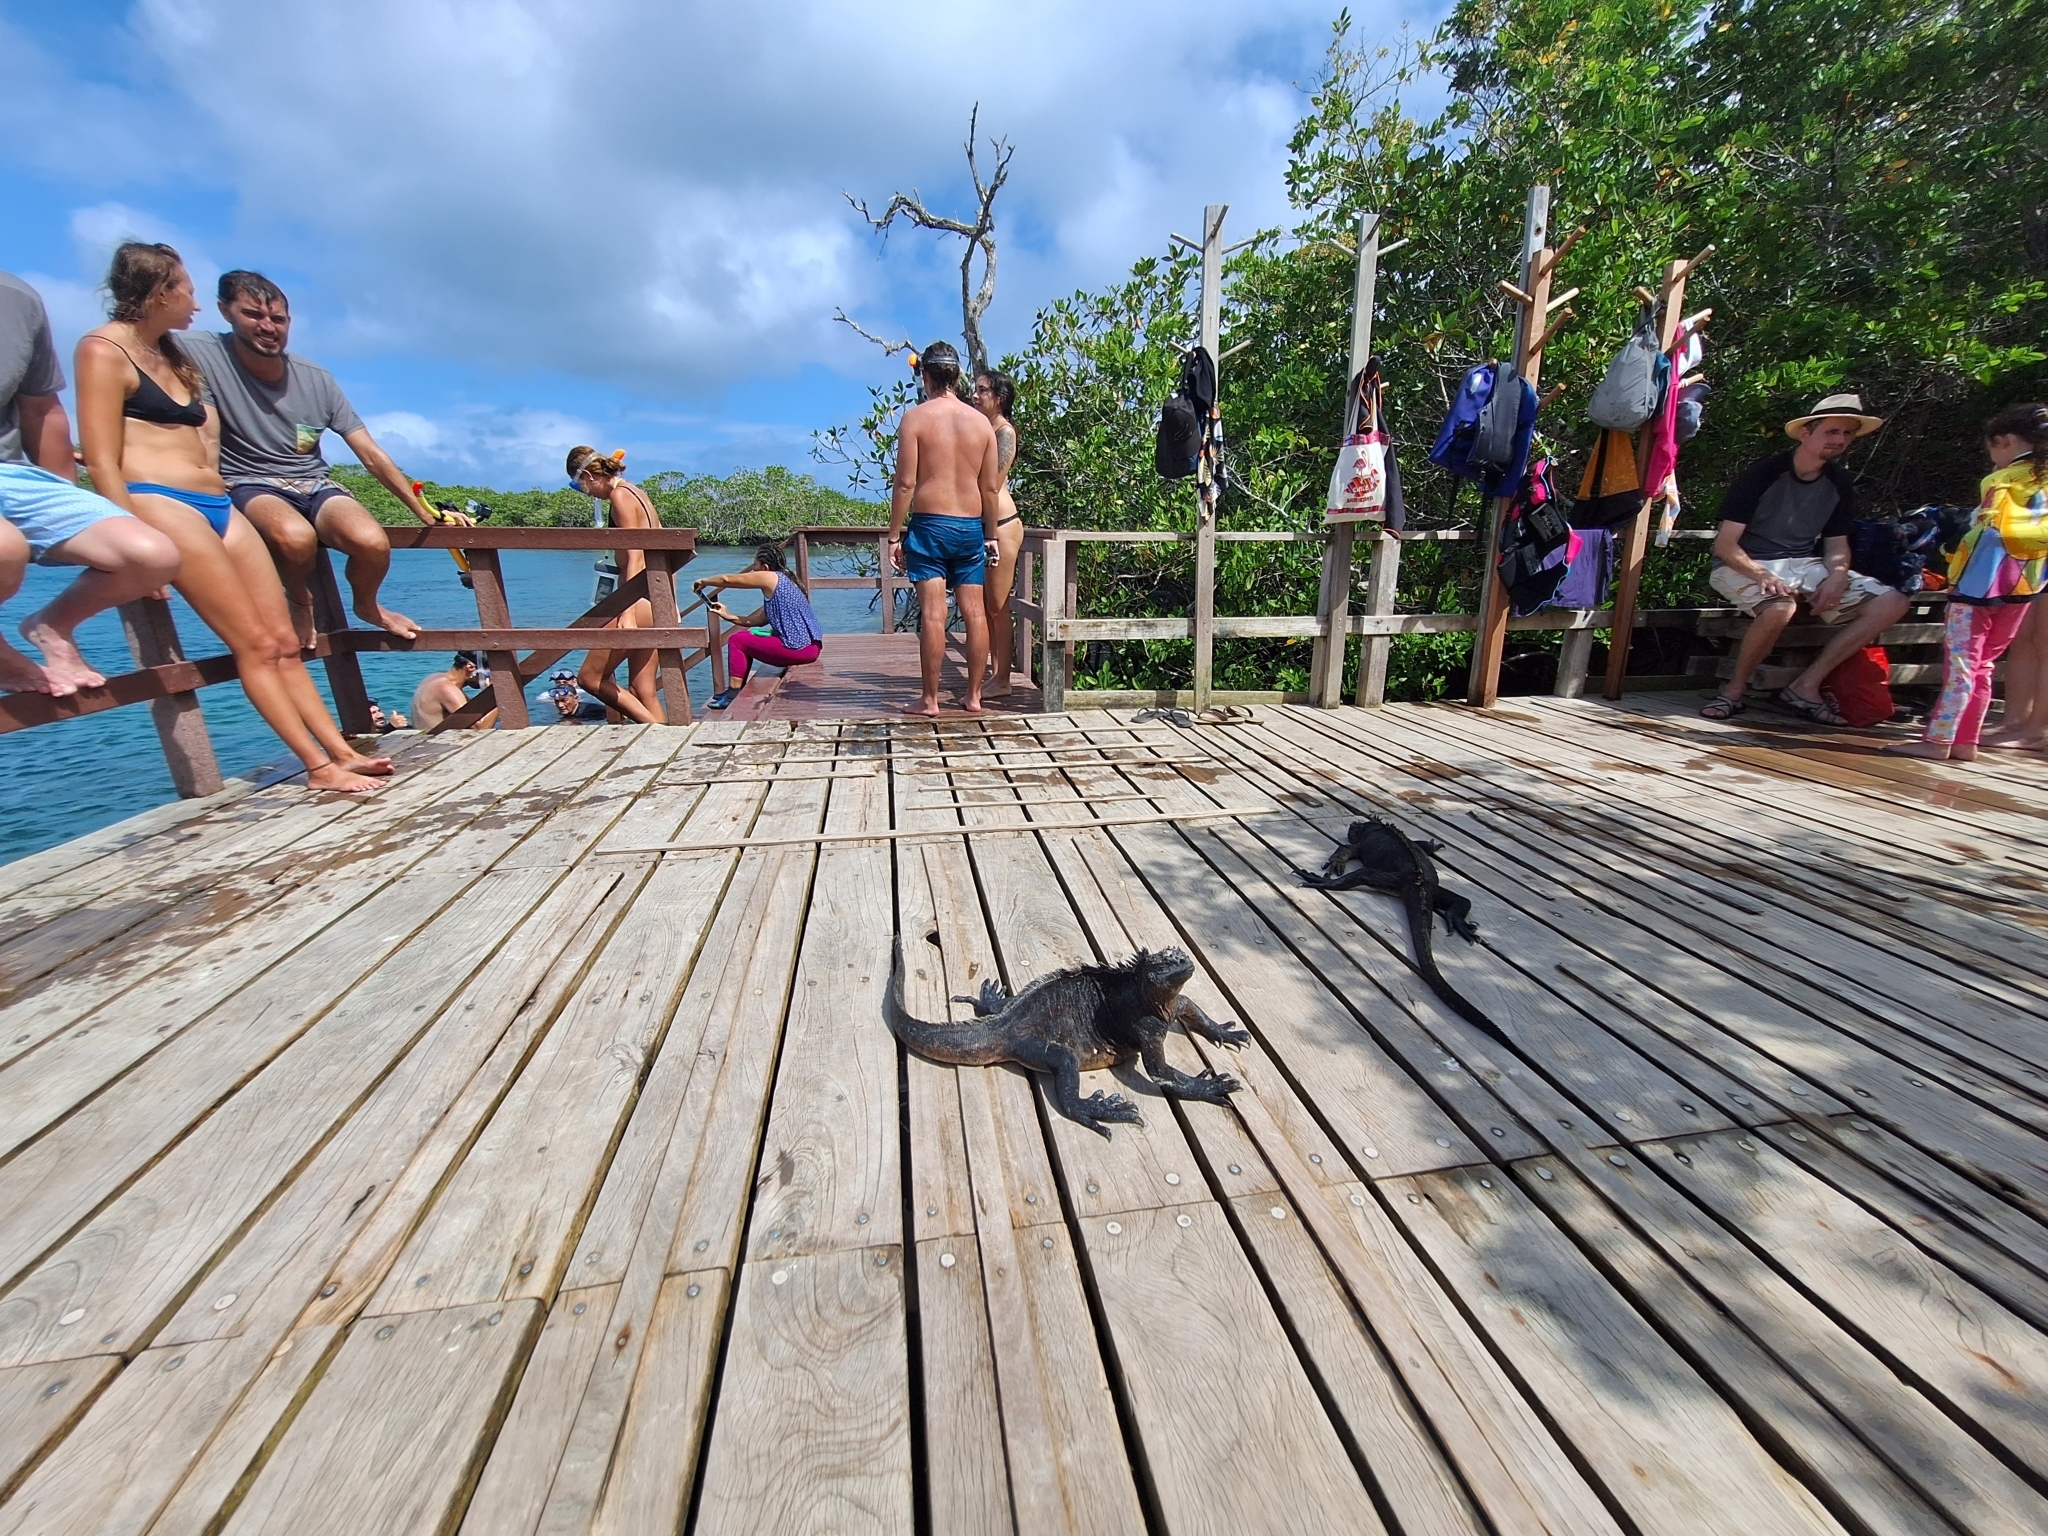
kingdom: Animalia
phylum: Chordata
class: Squamata
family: Iguanidae
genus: Amblyrhynchus
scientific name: Amblyrhynchus cristatus
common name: Marine iguana
